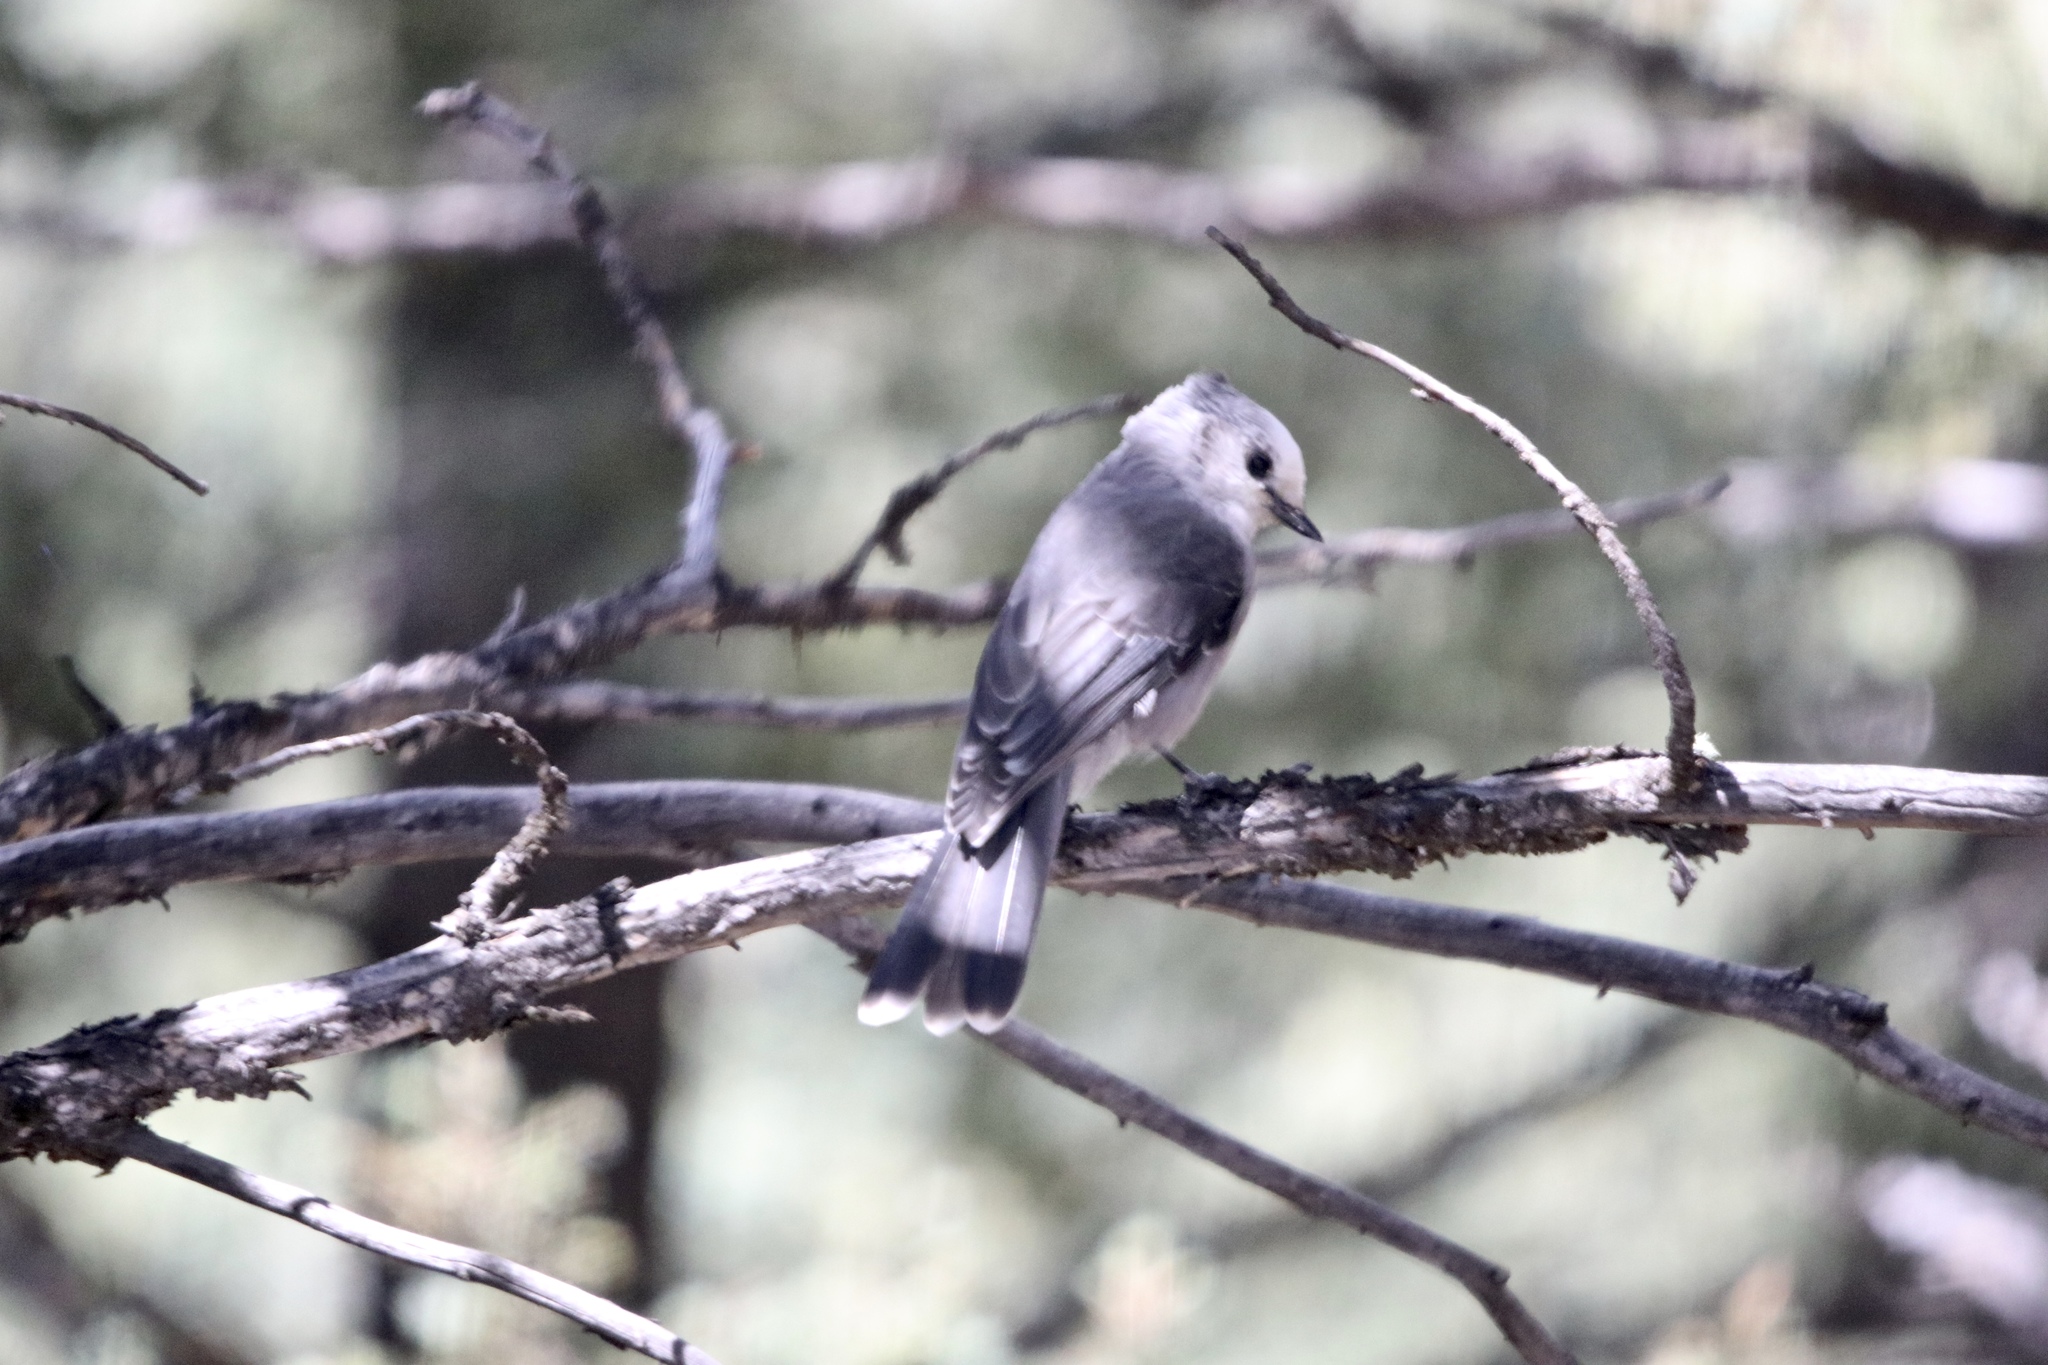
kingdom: Animalia
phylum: Chordata
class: Aves
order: Passeriformes
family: Corvidae
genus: Perisoreus
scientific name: Perisoreus canadensis
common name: Gray jay
